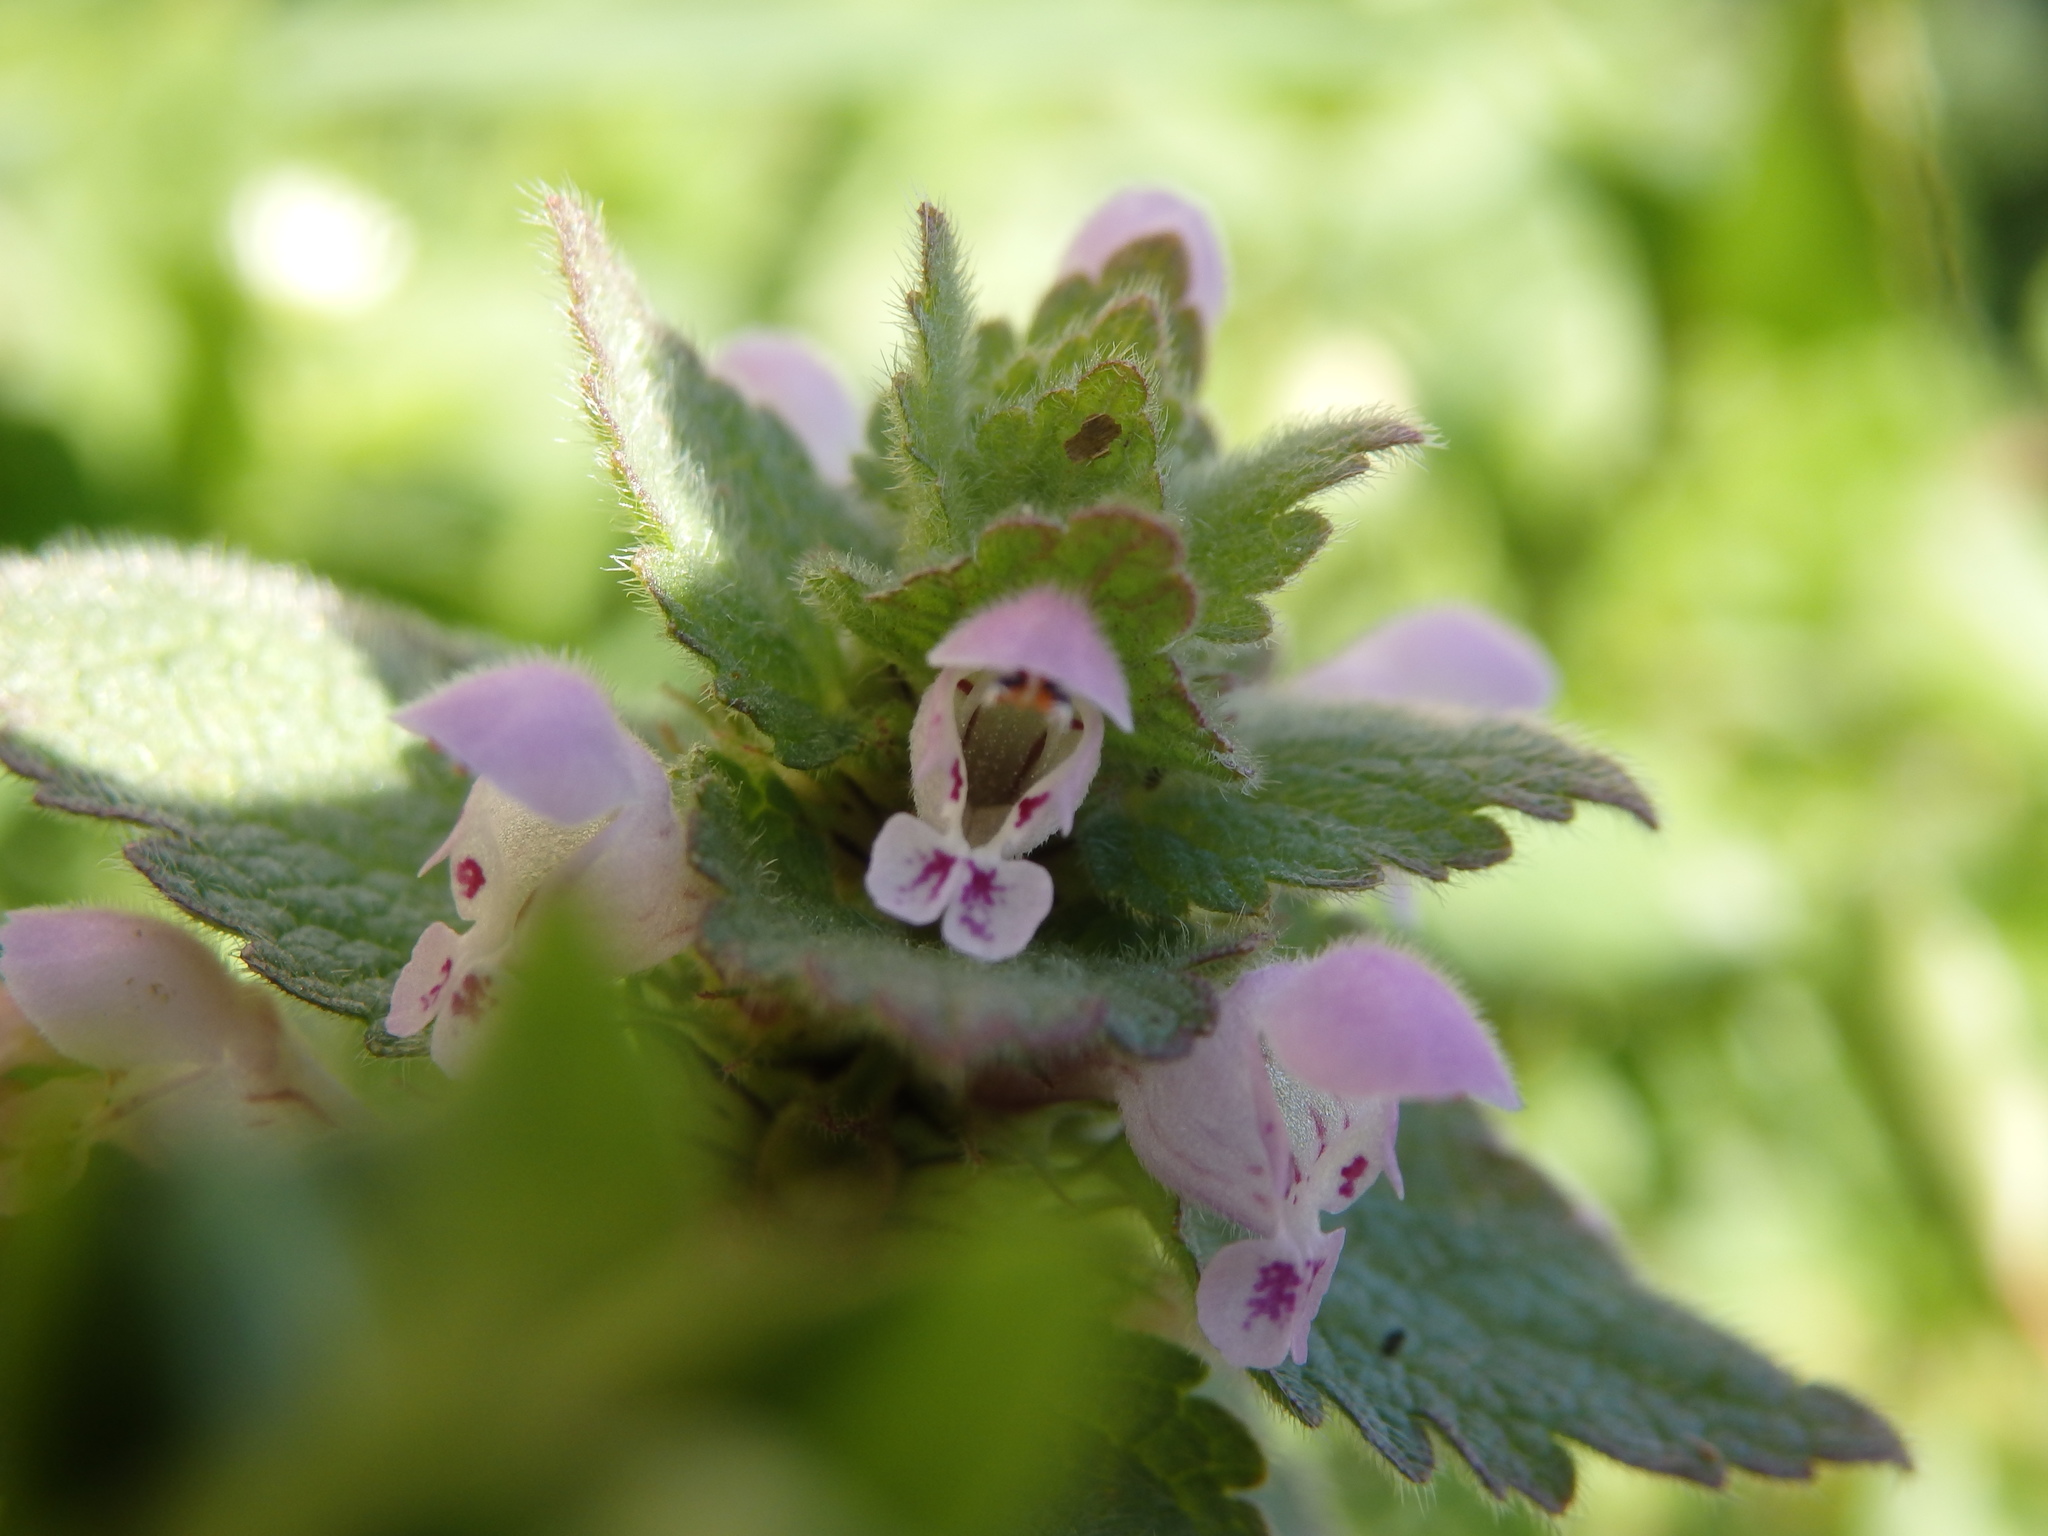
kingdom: Plantae
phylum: Tracheophyta
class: Magnoliopsida
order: Lamiales
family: Lamiaceae
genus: Lamium
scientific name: Lamium purpureum
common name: Red dead-nettle
